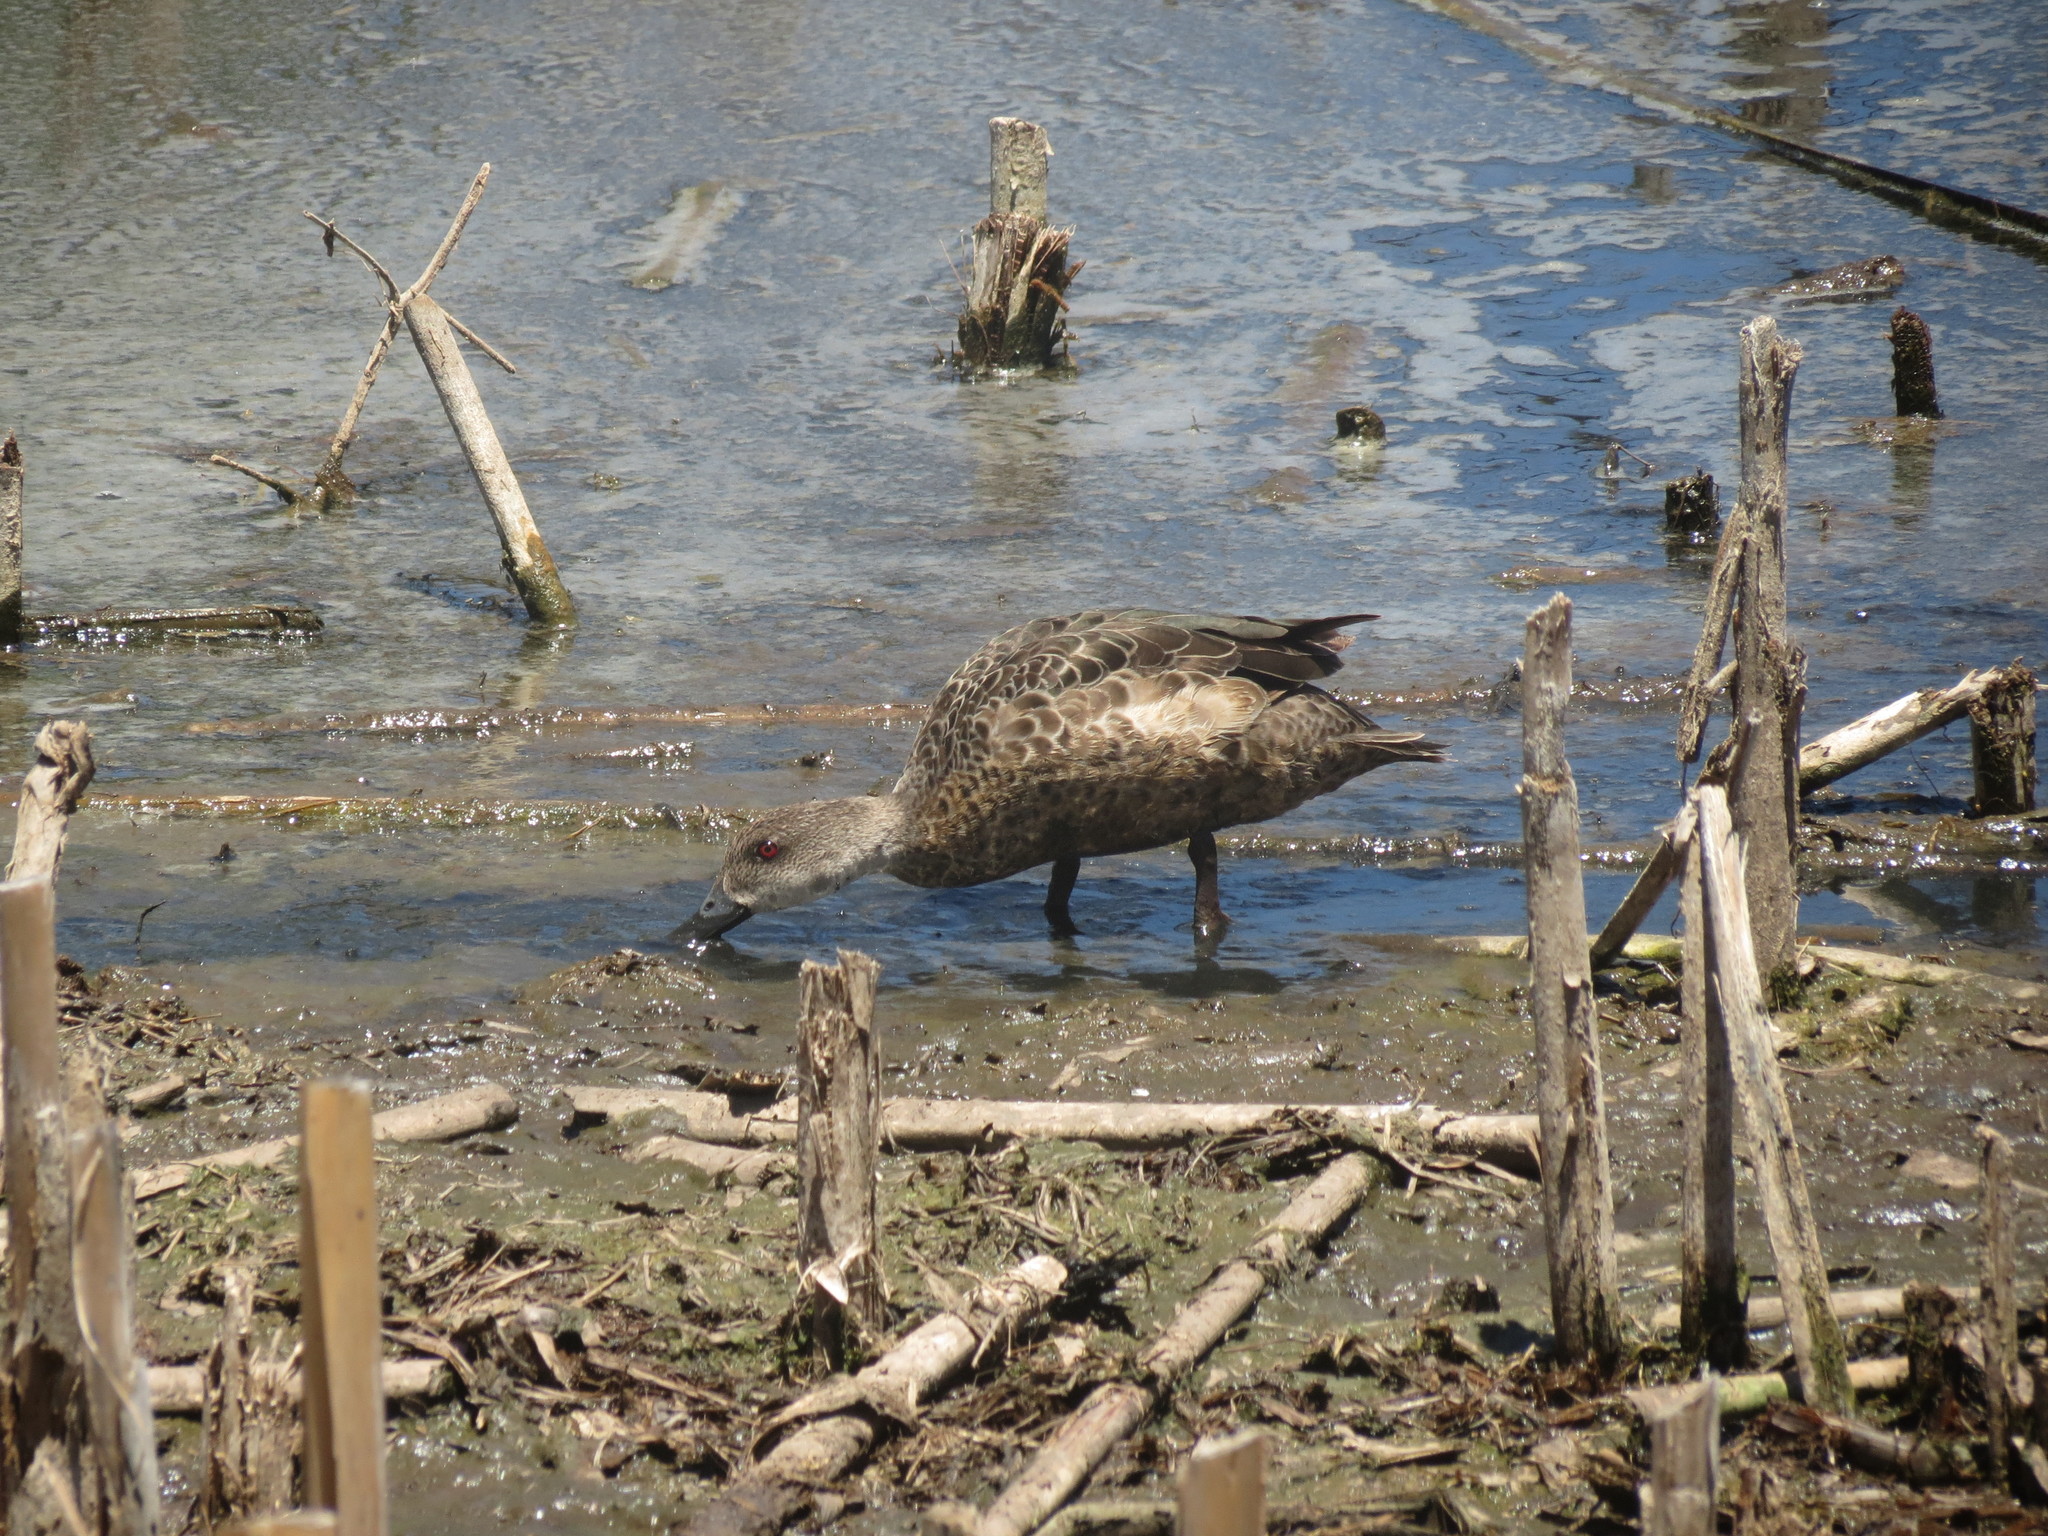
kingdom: Animalia
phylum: Chordata
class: Aves
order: Anseriformes
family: Anatidae
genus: Anas
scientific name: Anas gracilis
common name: Grey teal
